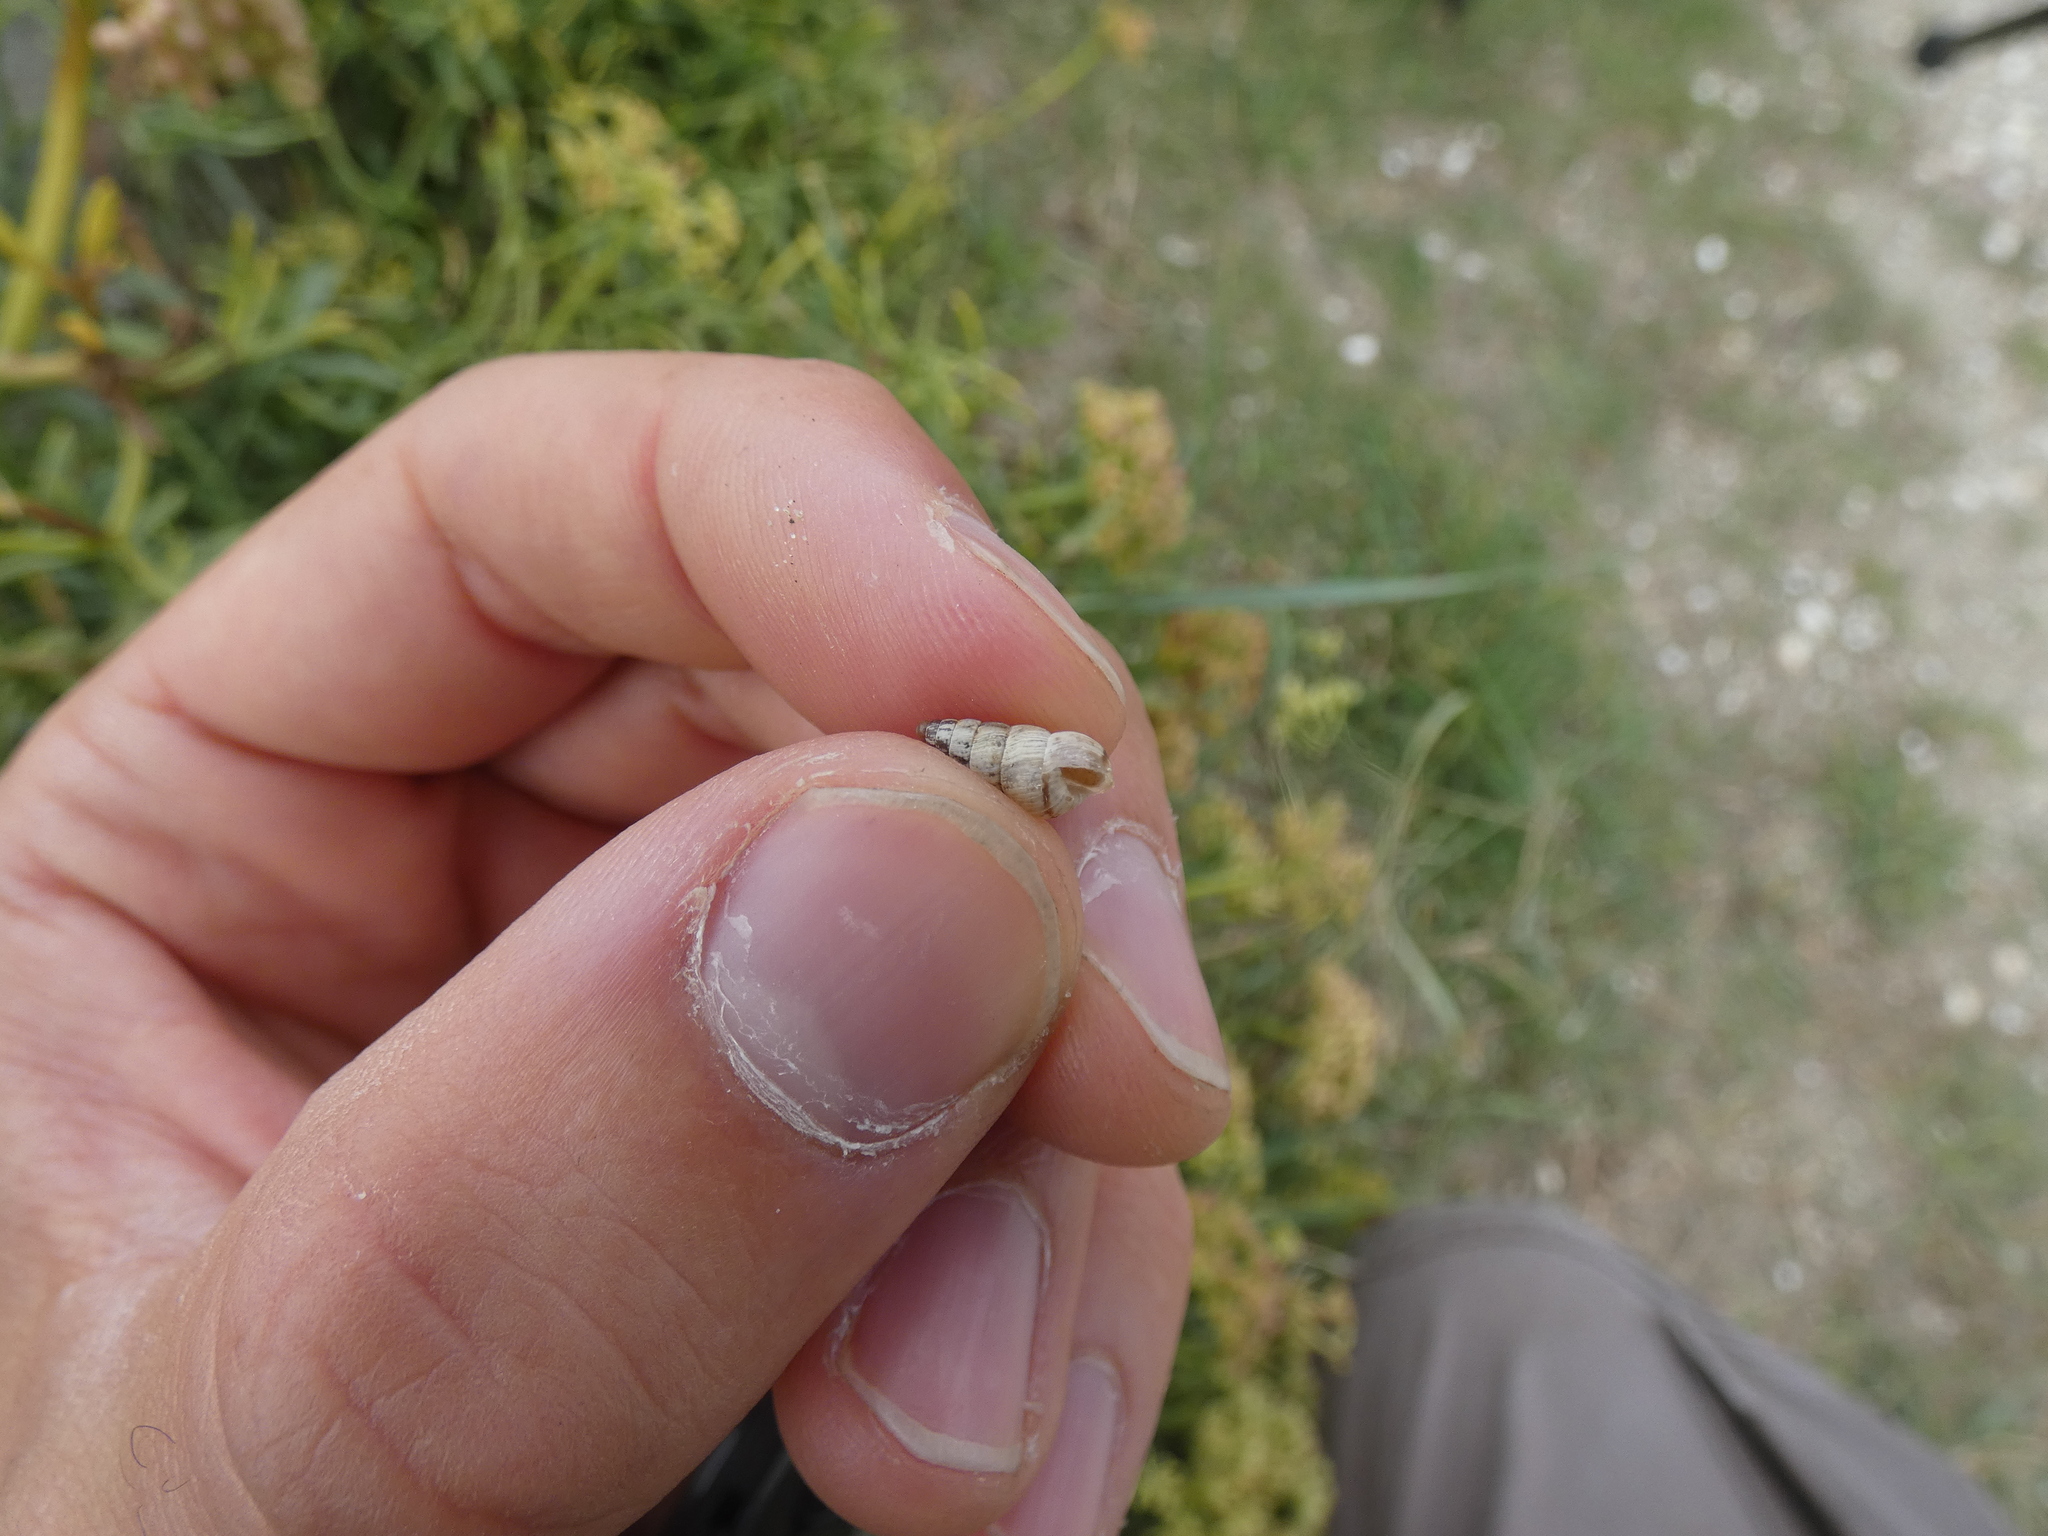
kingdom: Animalia
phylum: Mollusca
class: Gastropoda
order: Stylommatophora
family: Geomitridae
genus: Cochlicella
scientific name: Cochlicella acuta
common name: Pointed snail
